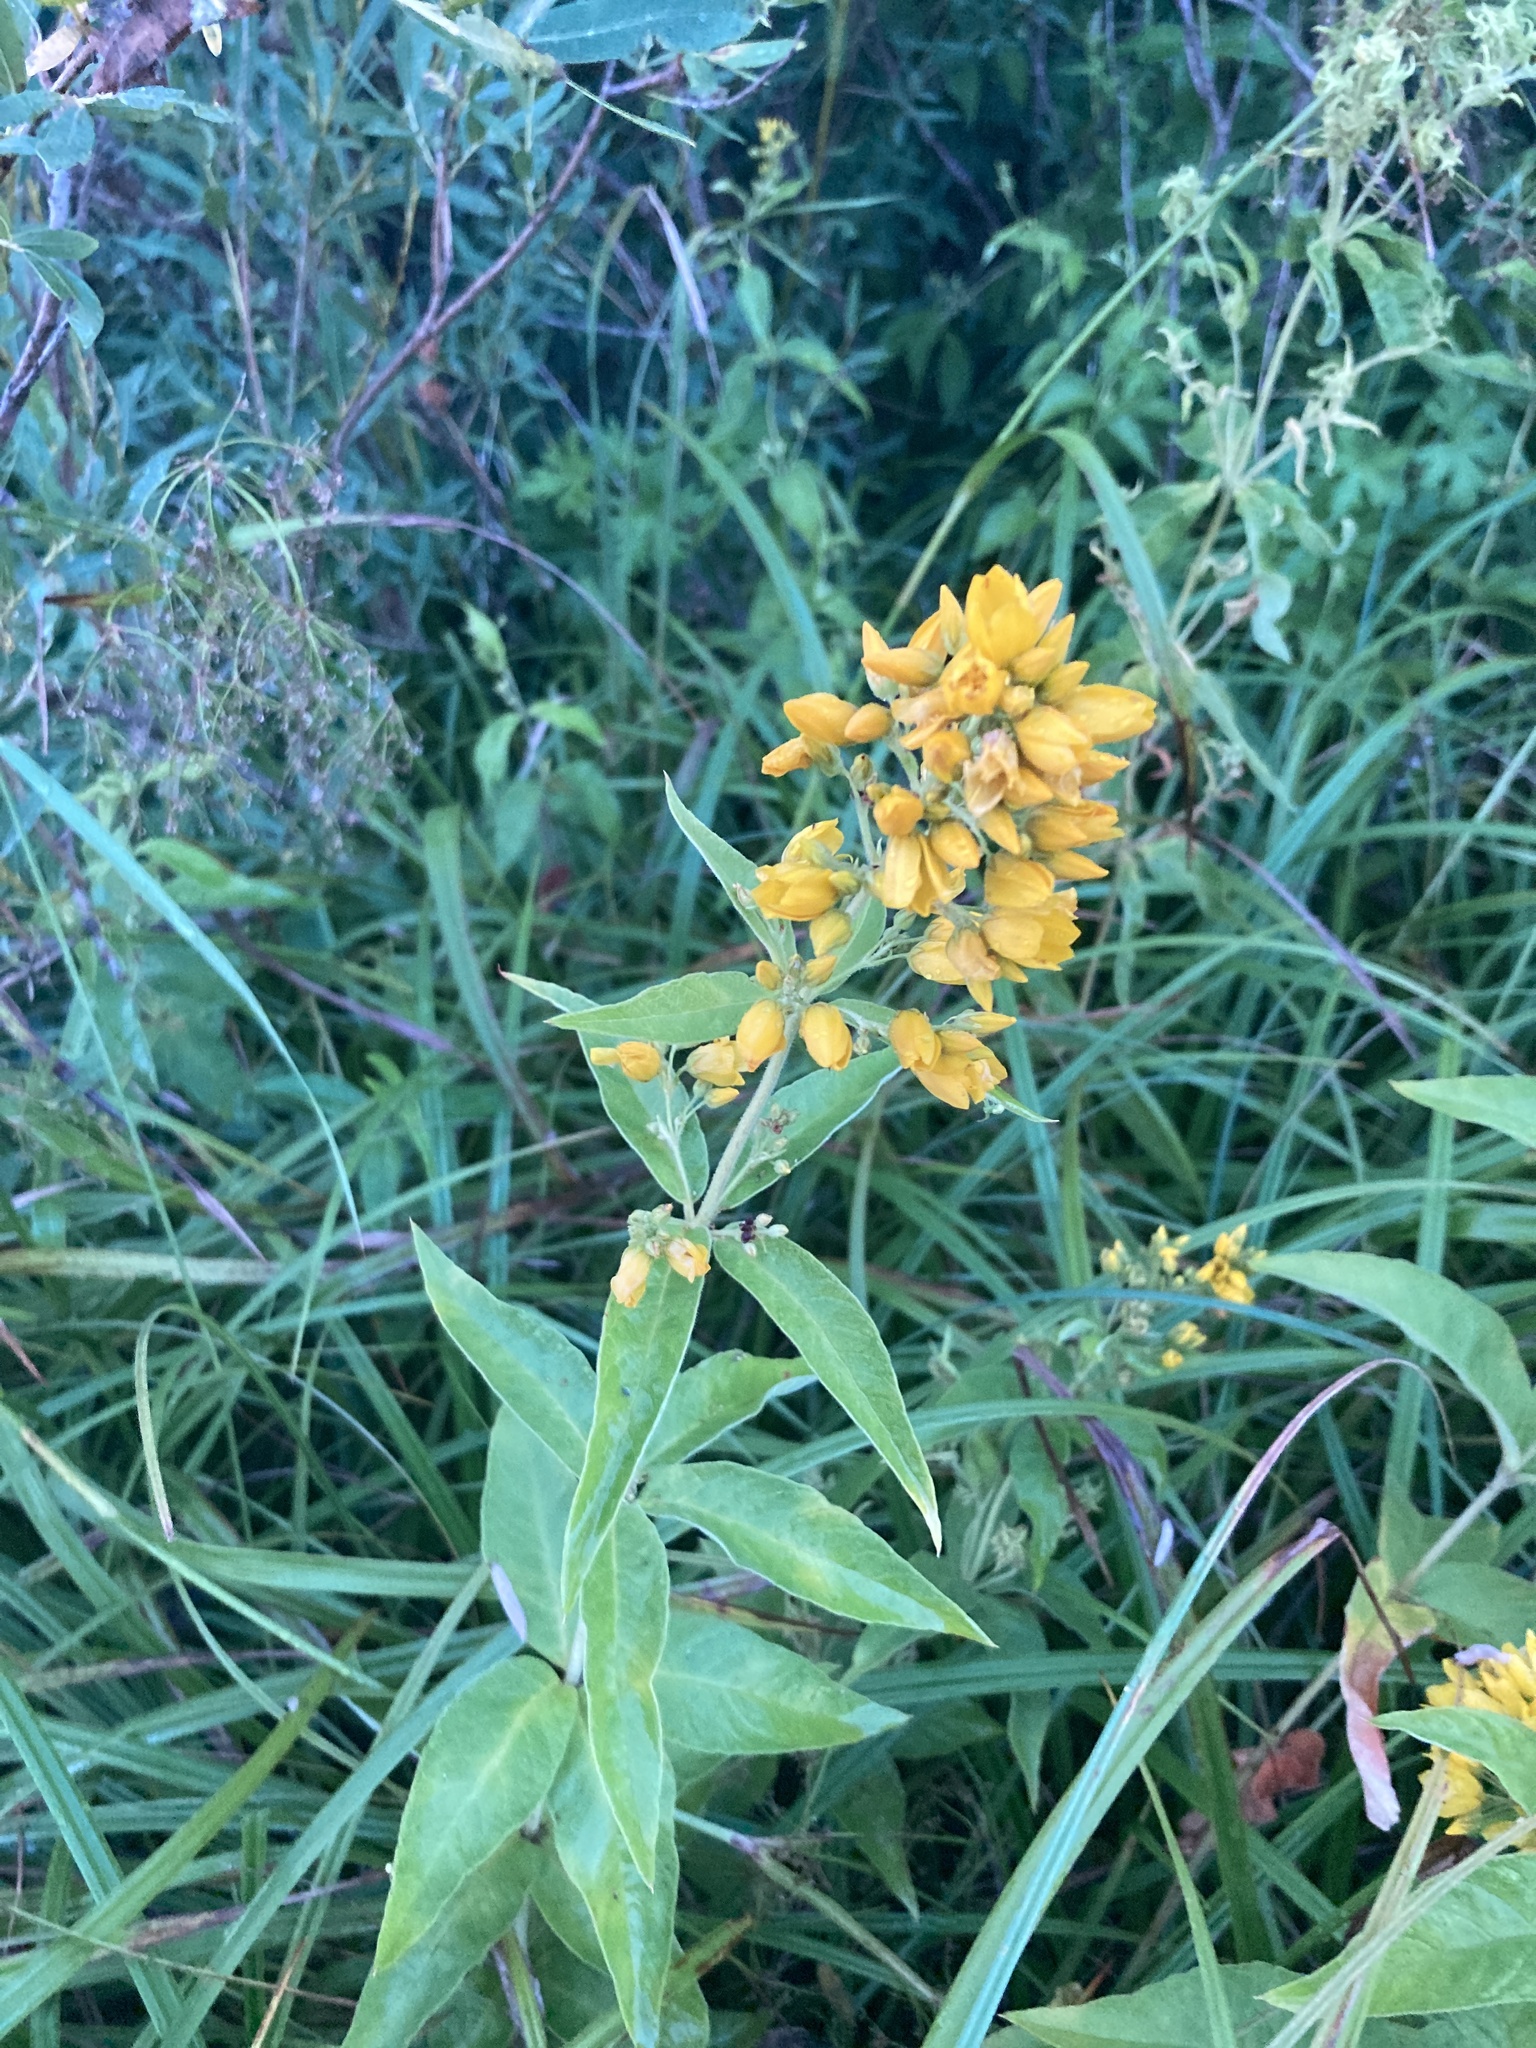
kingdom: Plantae
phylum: Tracheophyta
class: Magnoliopsida
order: Ericales
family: Primulaceae
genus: Lysimachia
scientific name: Lysimachia vulgaris
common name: Yellow loosestrife
